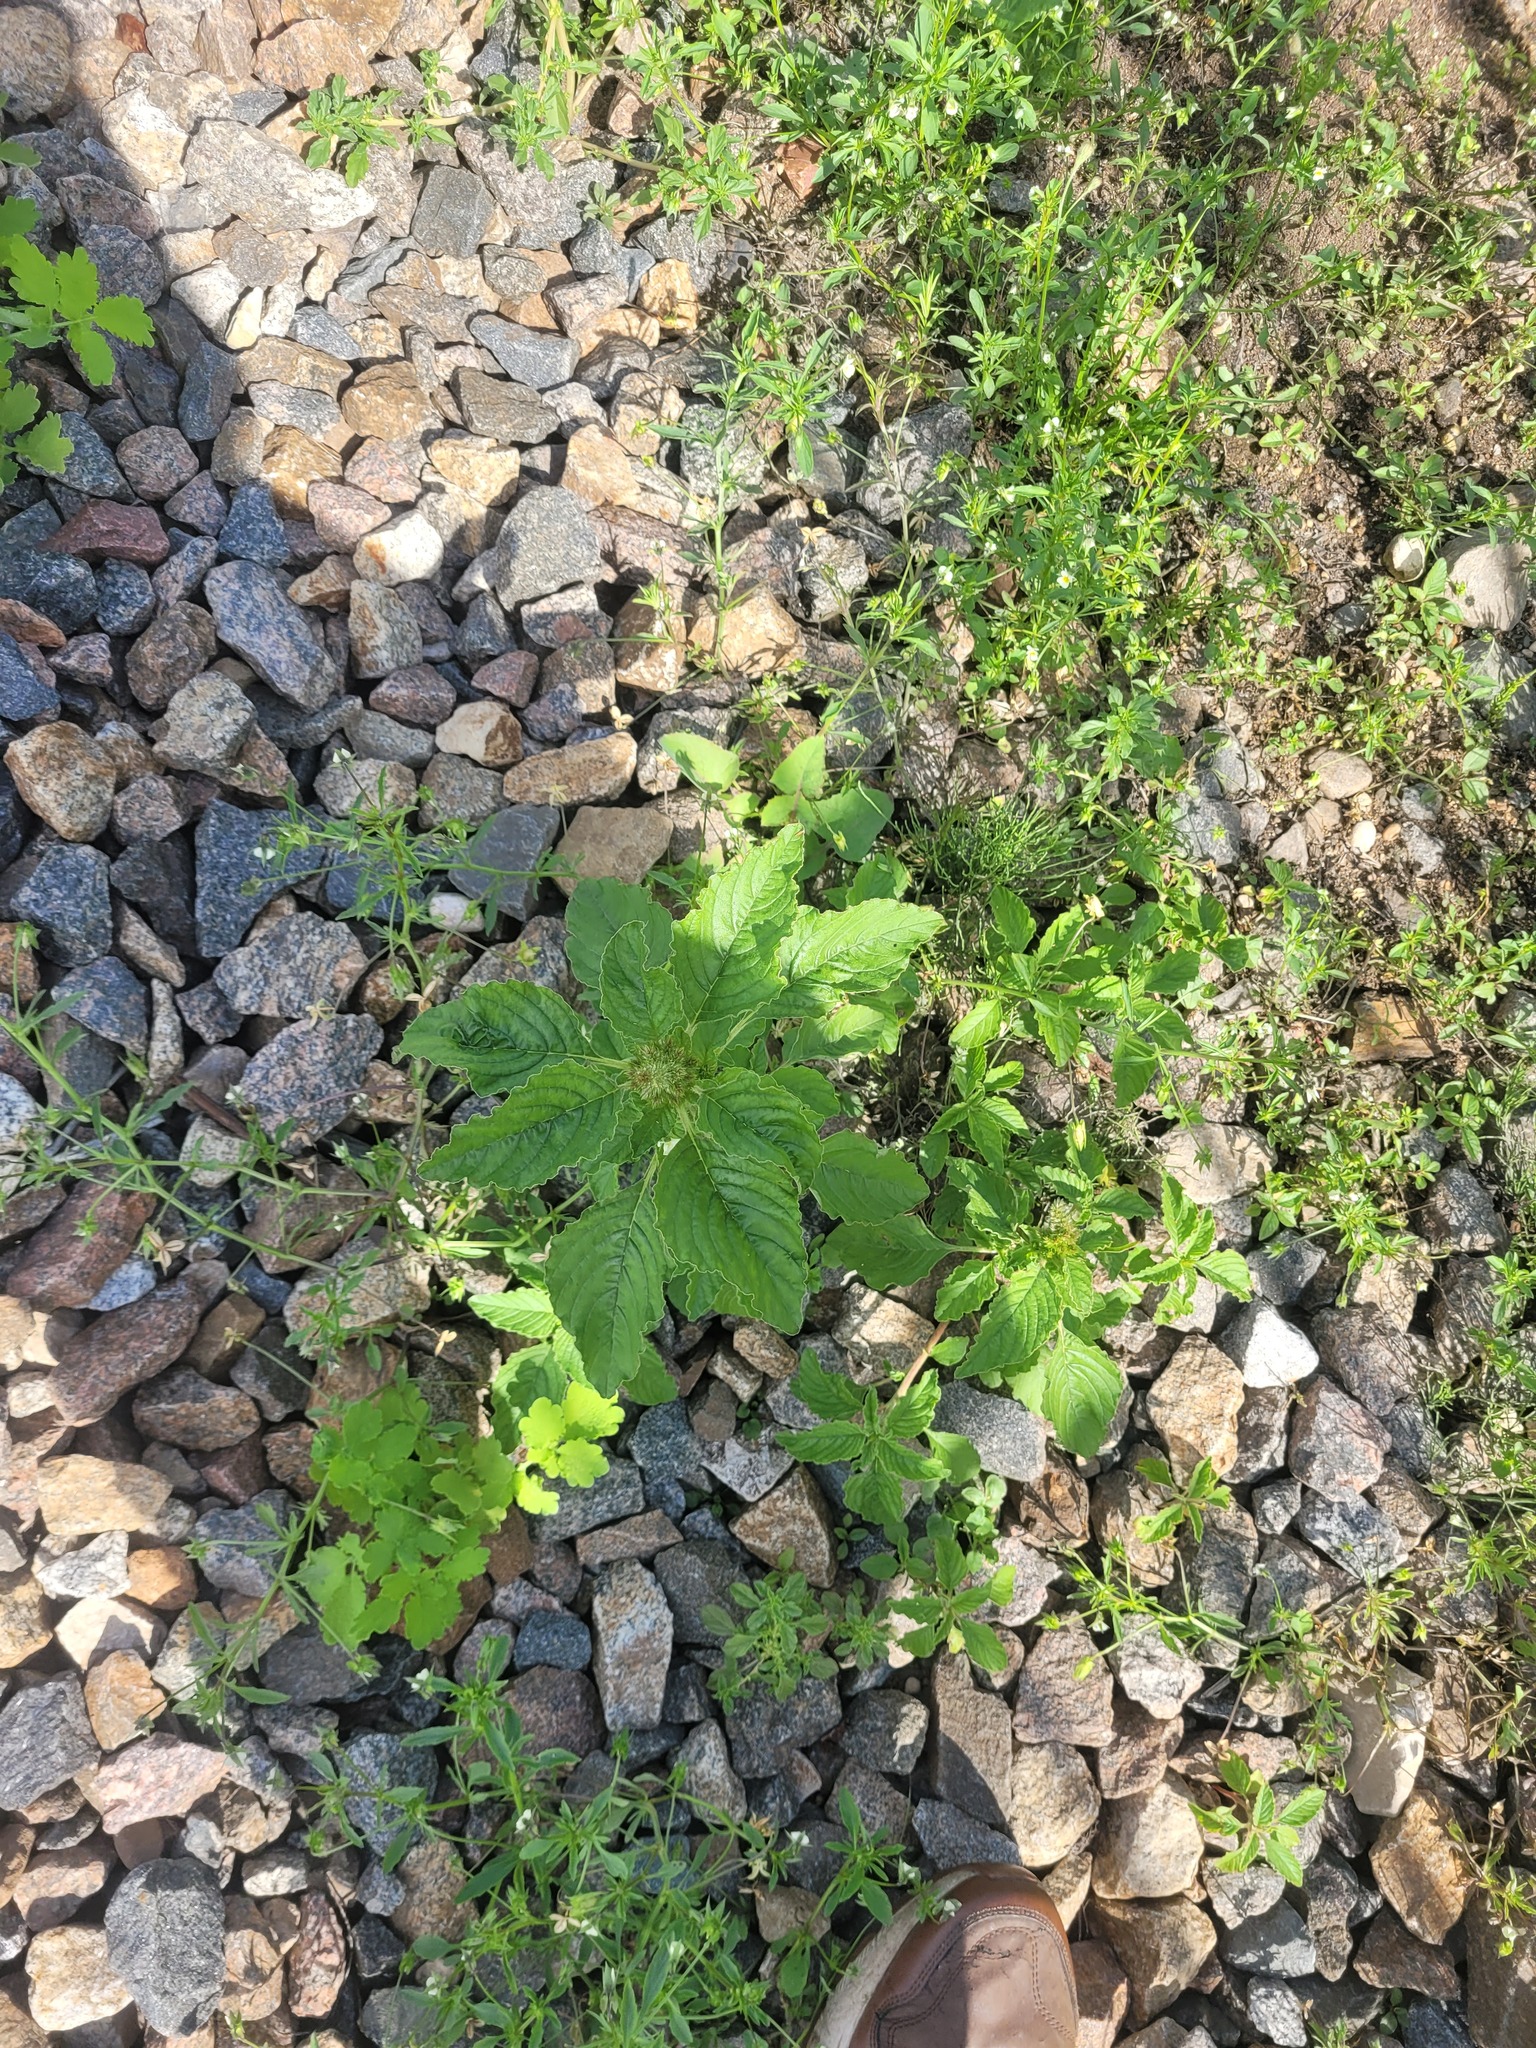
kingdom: Plantae
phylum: Tracheophyta
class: Magnoliopsida
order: Caryophyllales
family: Amaranthaceae
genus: Amaranthus
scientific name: Amaranthus retroflexus
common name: Redroot amaranth
